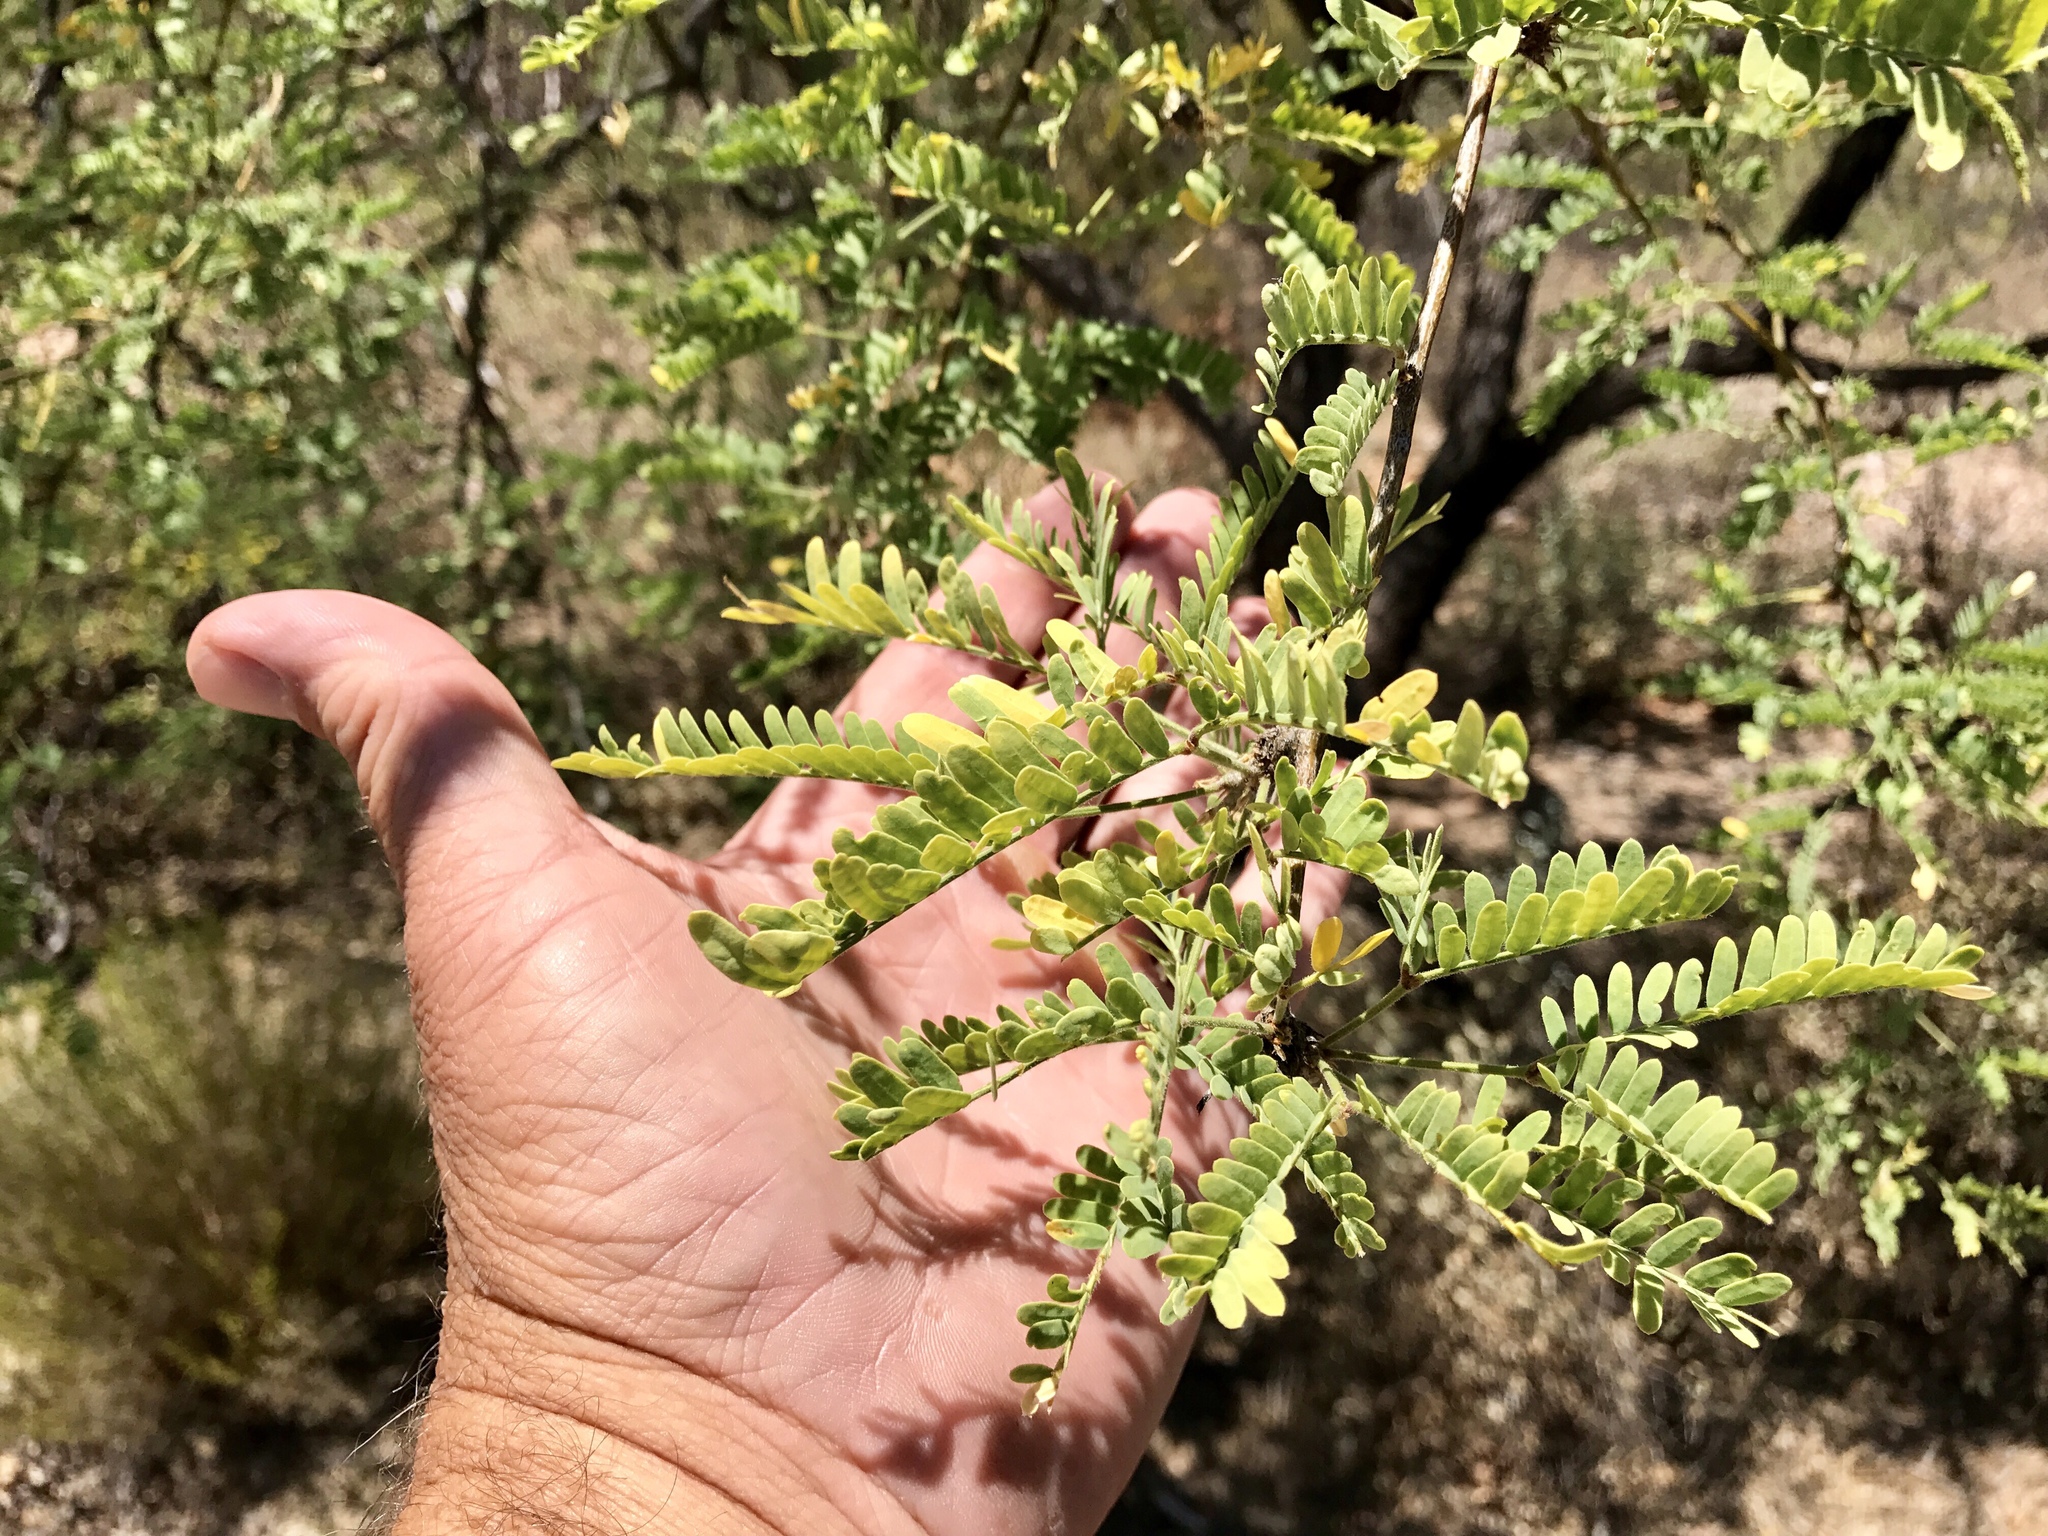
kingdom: Plantae
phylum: Tracheophyta
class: Magnoliopsida
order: Fabales
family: Fabaceae
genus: Prosopis
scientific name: Prosopis velutina
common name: Velvet mesquite
